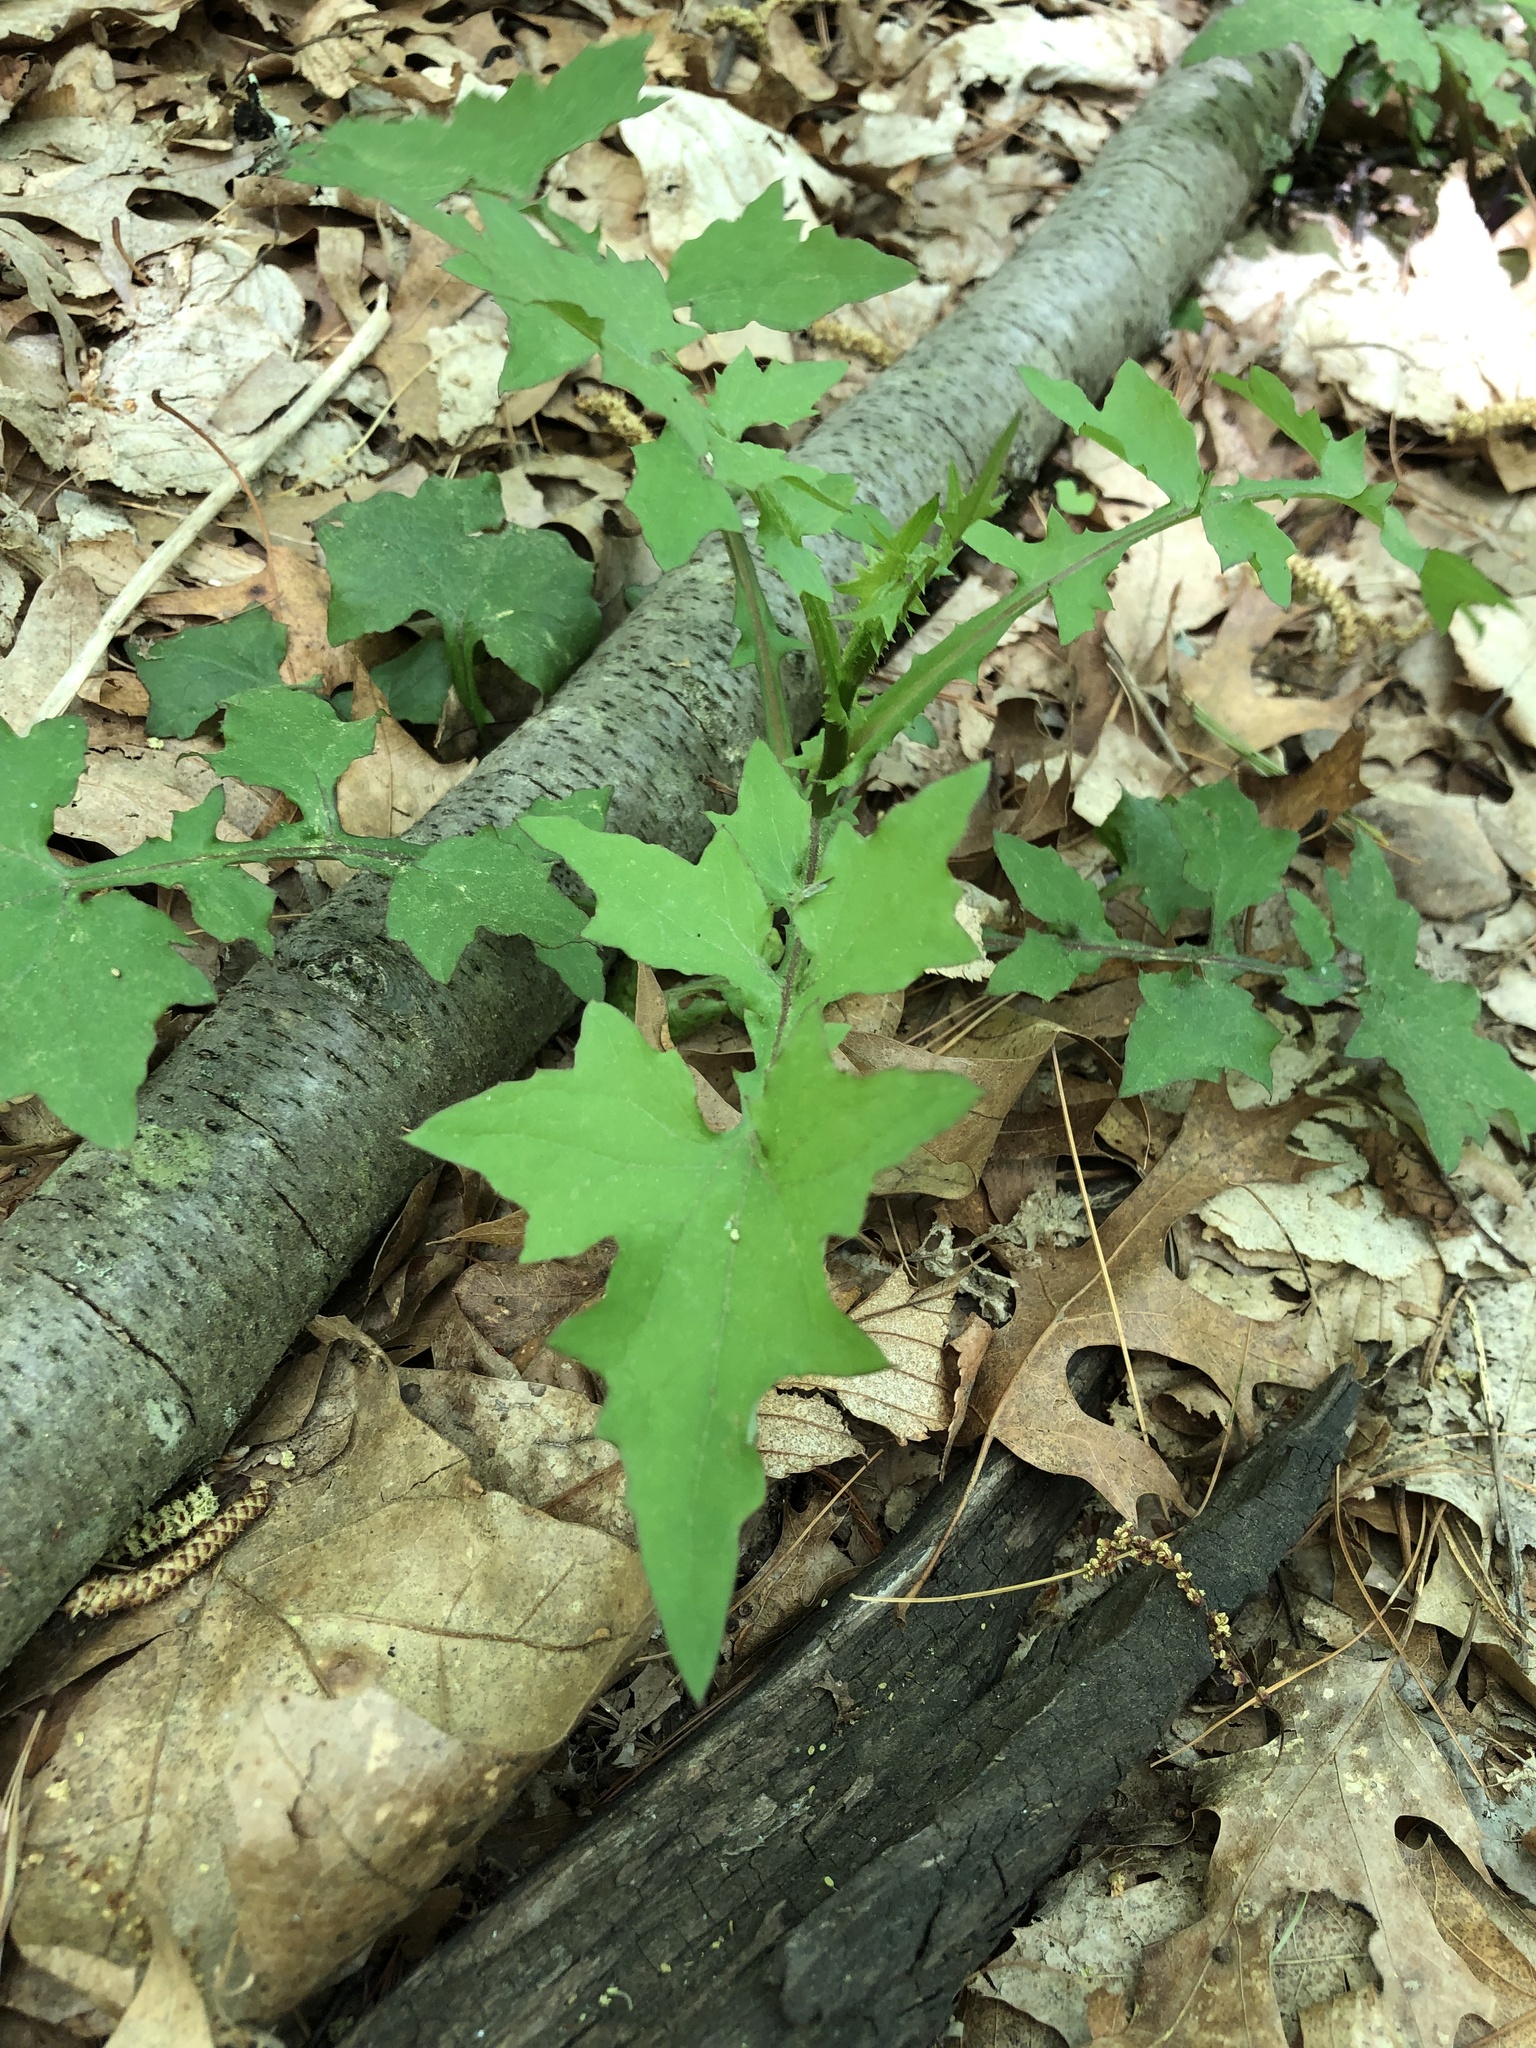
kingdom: Plantae
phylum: Tracheophyta
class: Magnoliopsida
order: Asterales
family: Asteraceae
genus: Mycelis
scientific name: Mycelis muralis
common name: Wall lettuce
